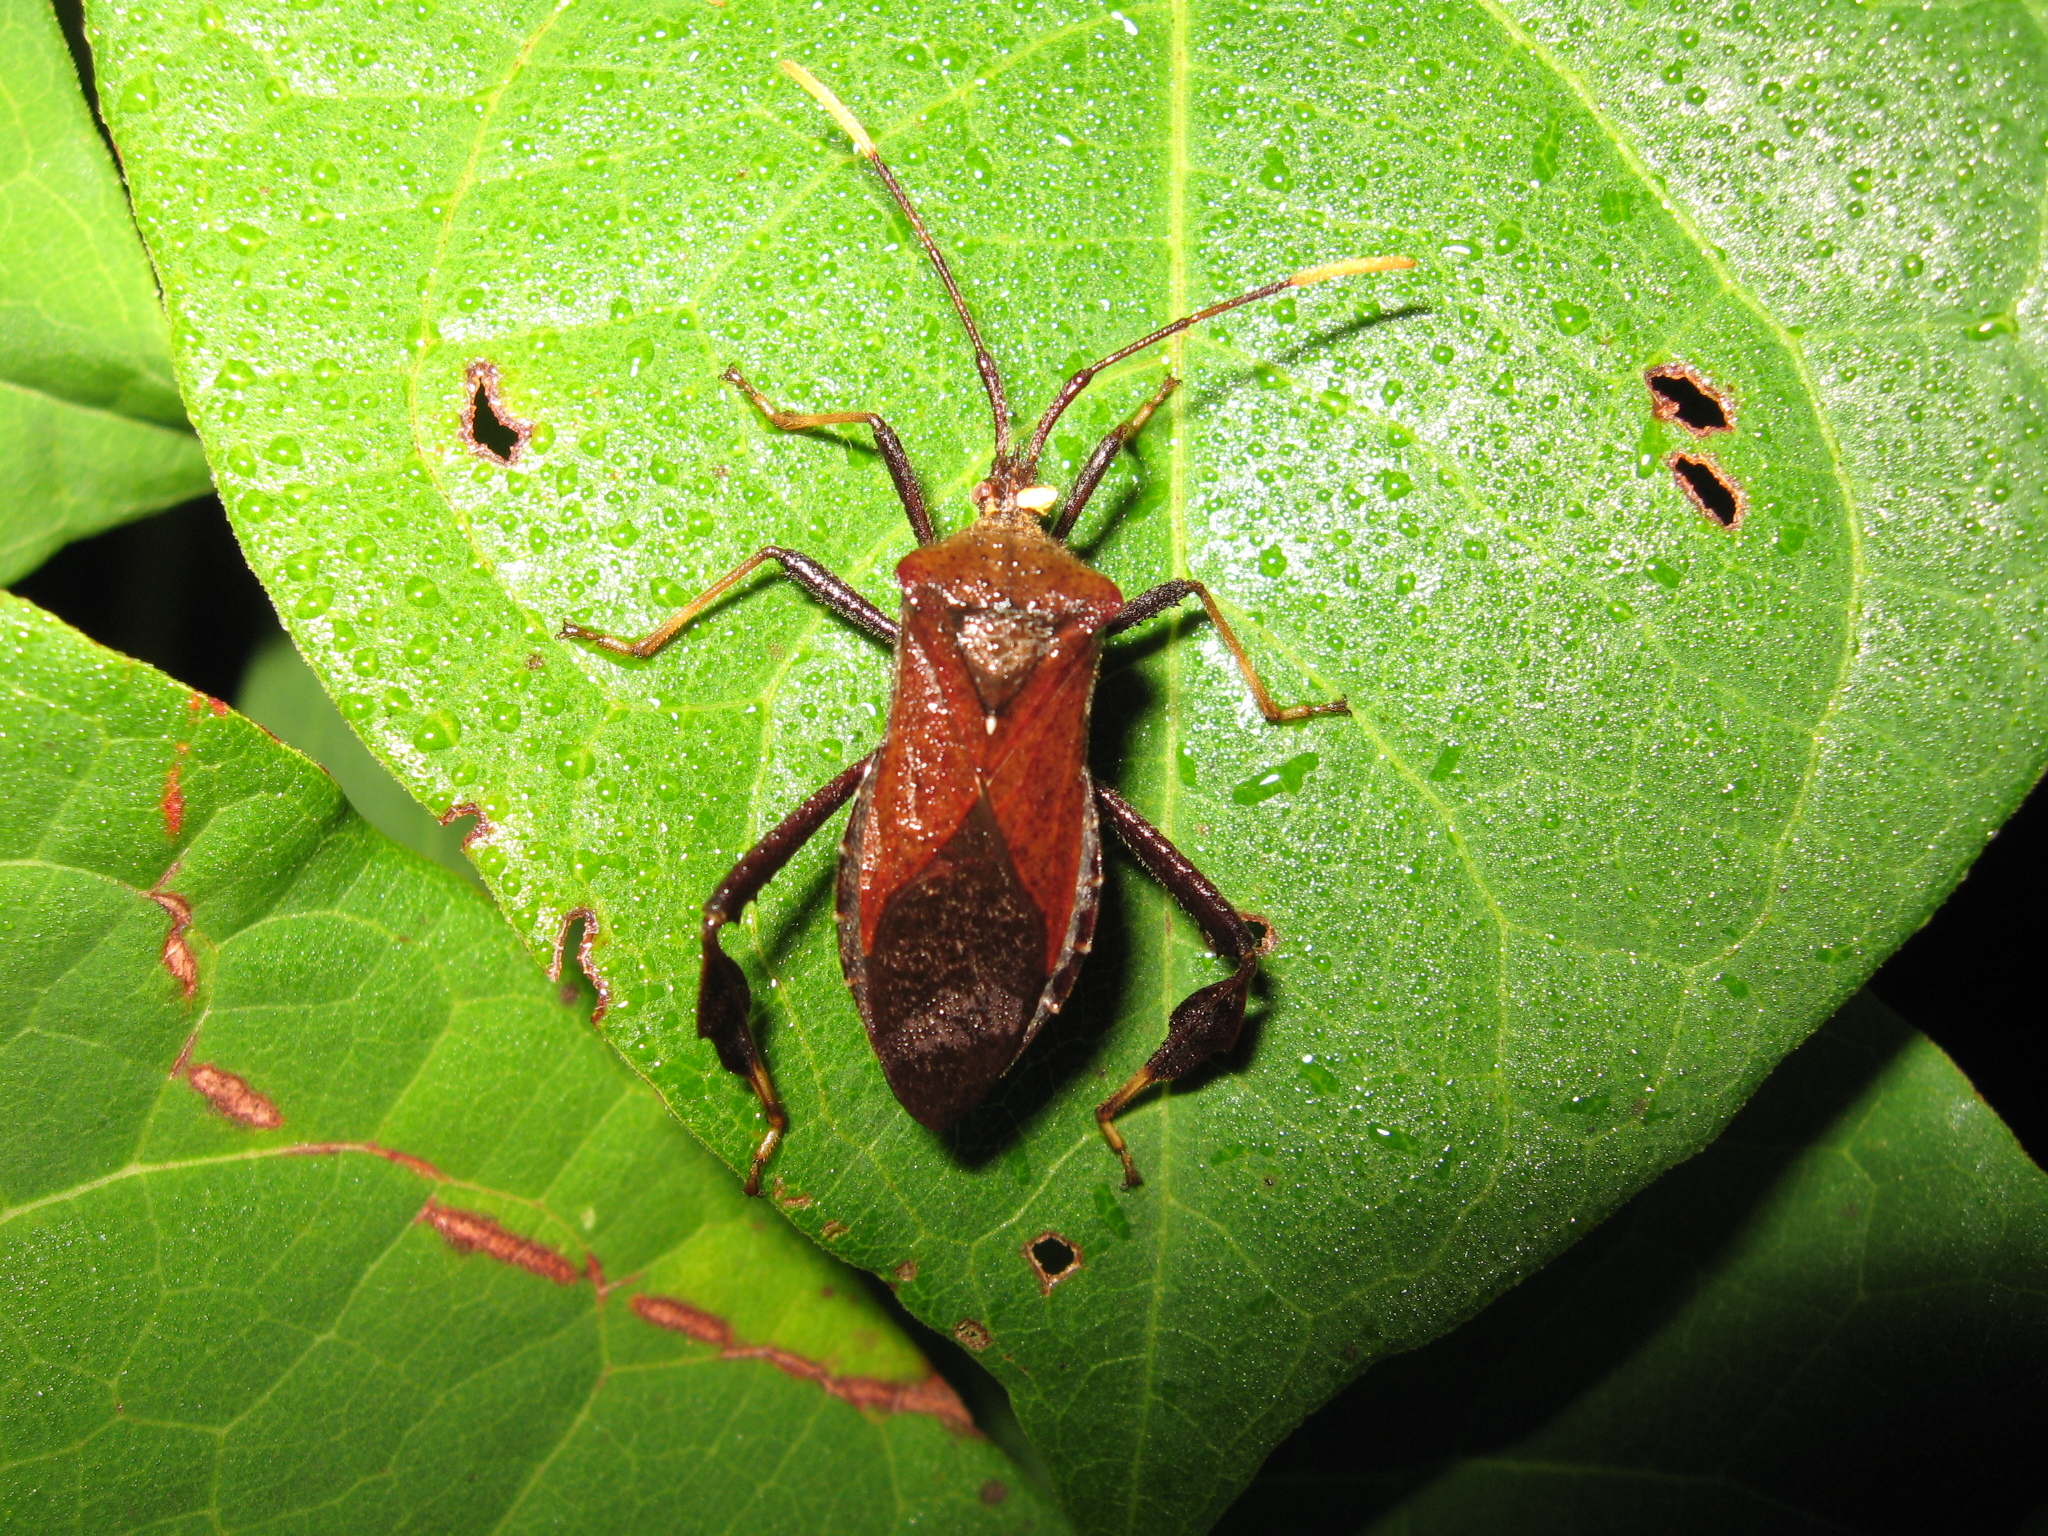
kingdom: Animalia
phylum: Arthropoda
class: Insecta
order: Hemiptera
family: Coreidae
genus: Acanthocephala
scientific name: Acanthocephala terminalis
